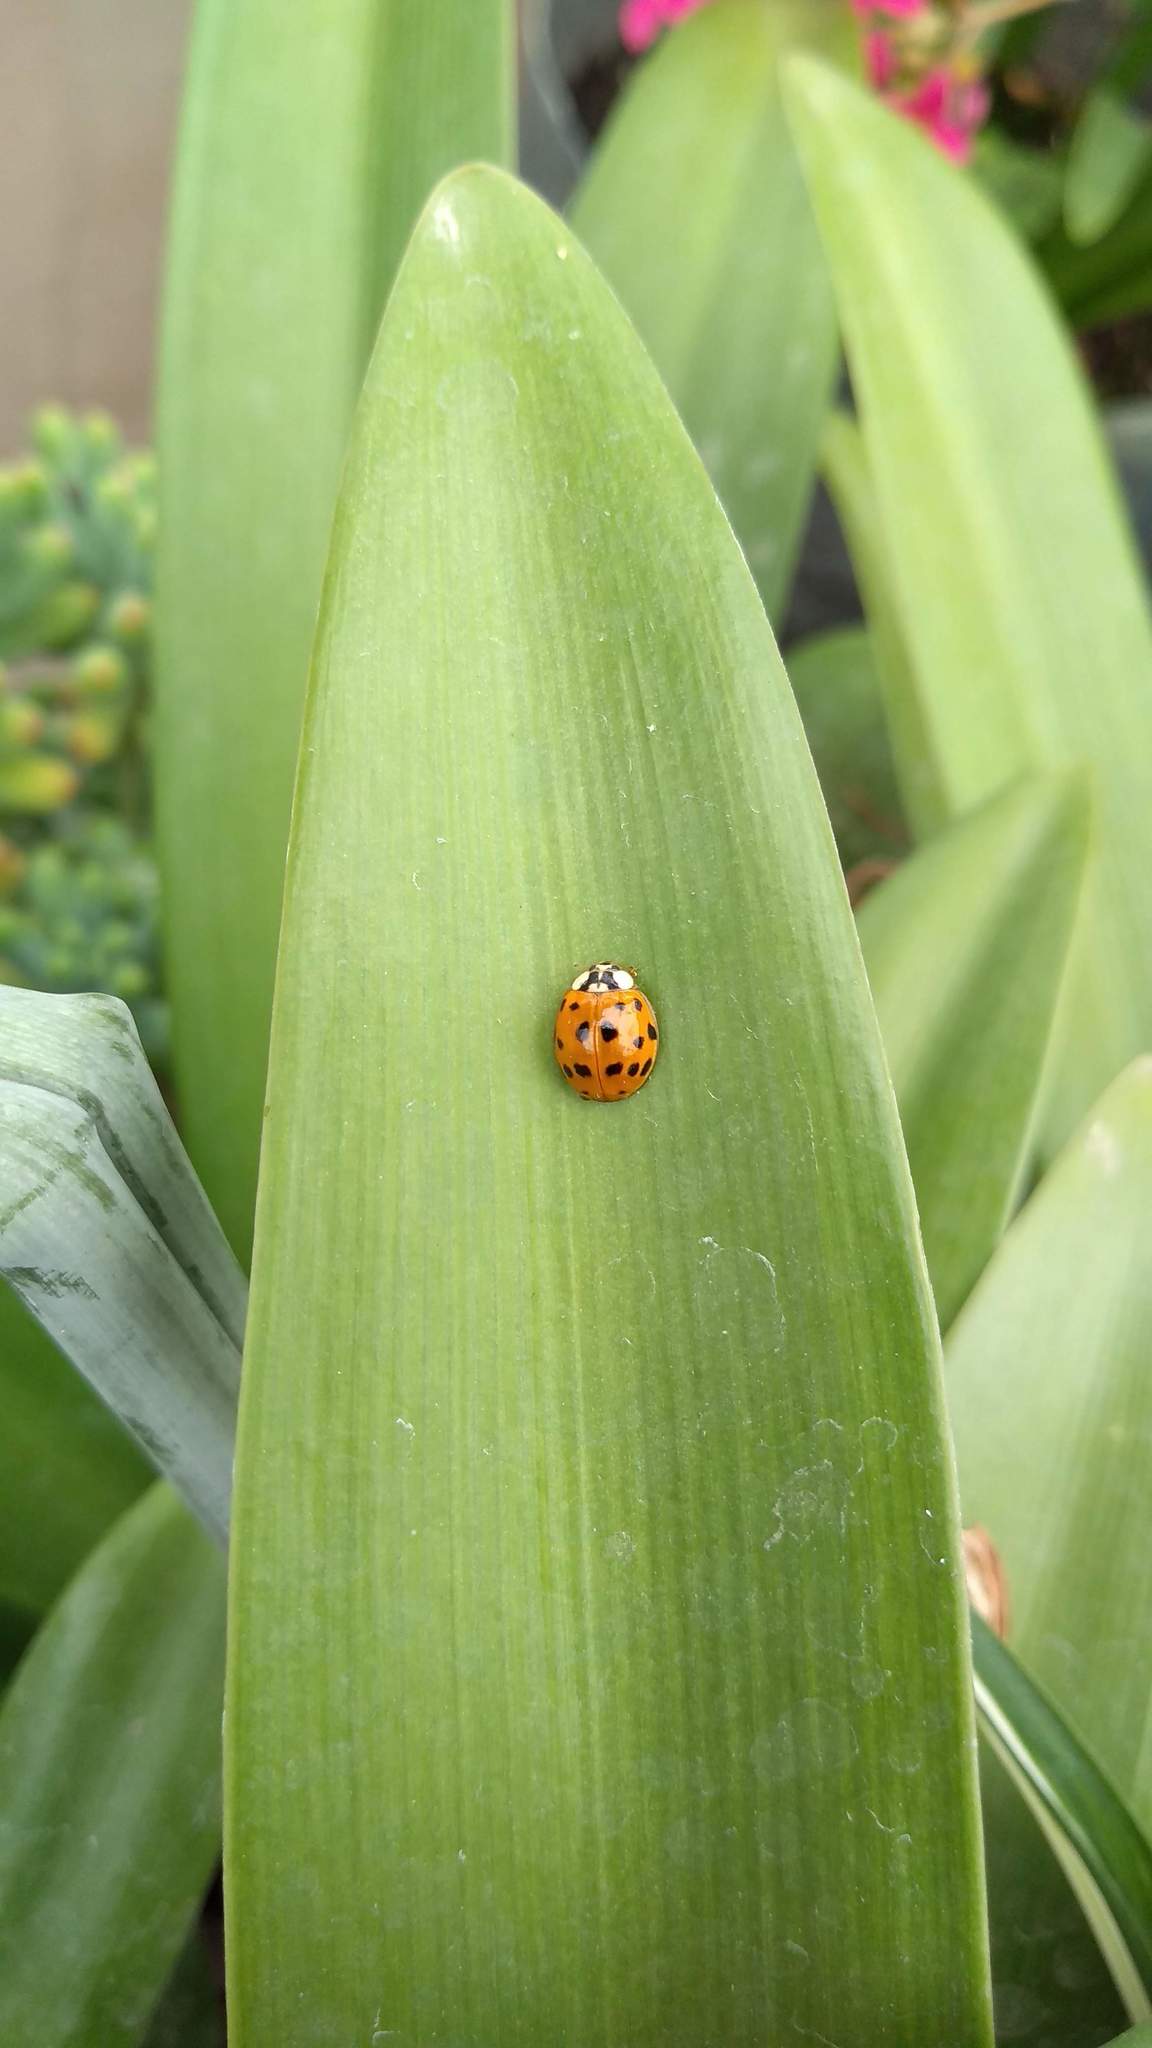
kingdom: Animalia
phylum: Arthropoda
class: Insecta
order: Coleoptera
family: Coccinellidae
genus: Harmonia
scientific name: Harmonia axyridis
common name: Harlequin ladybird
